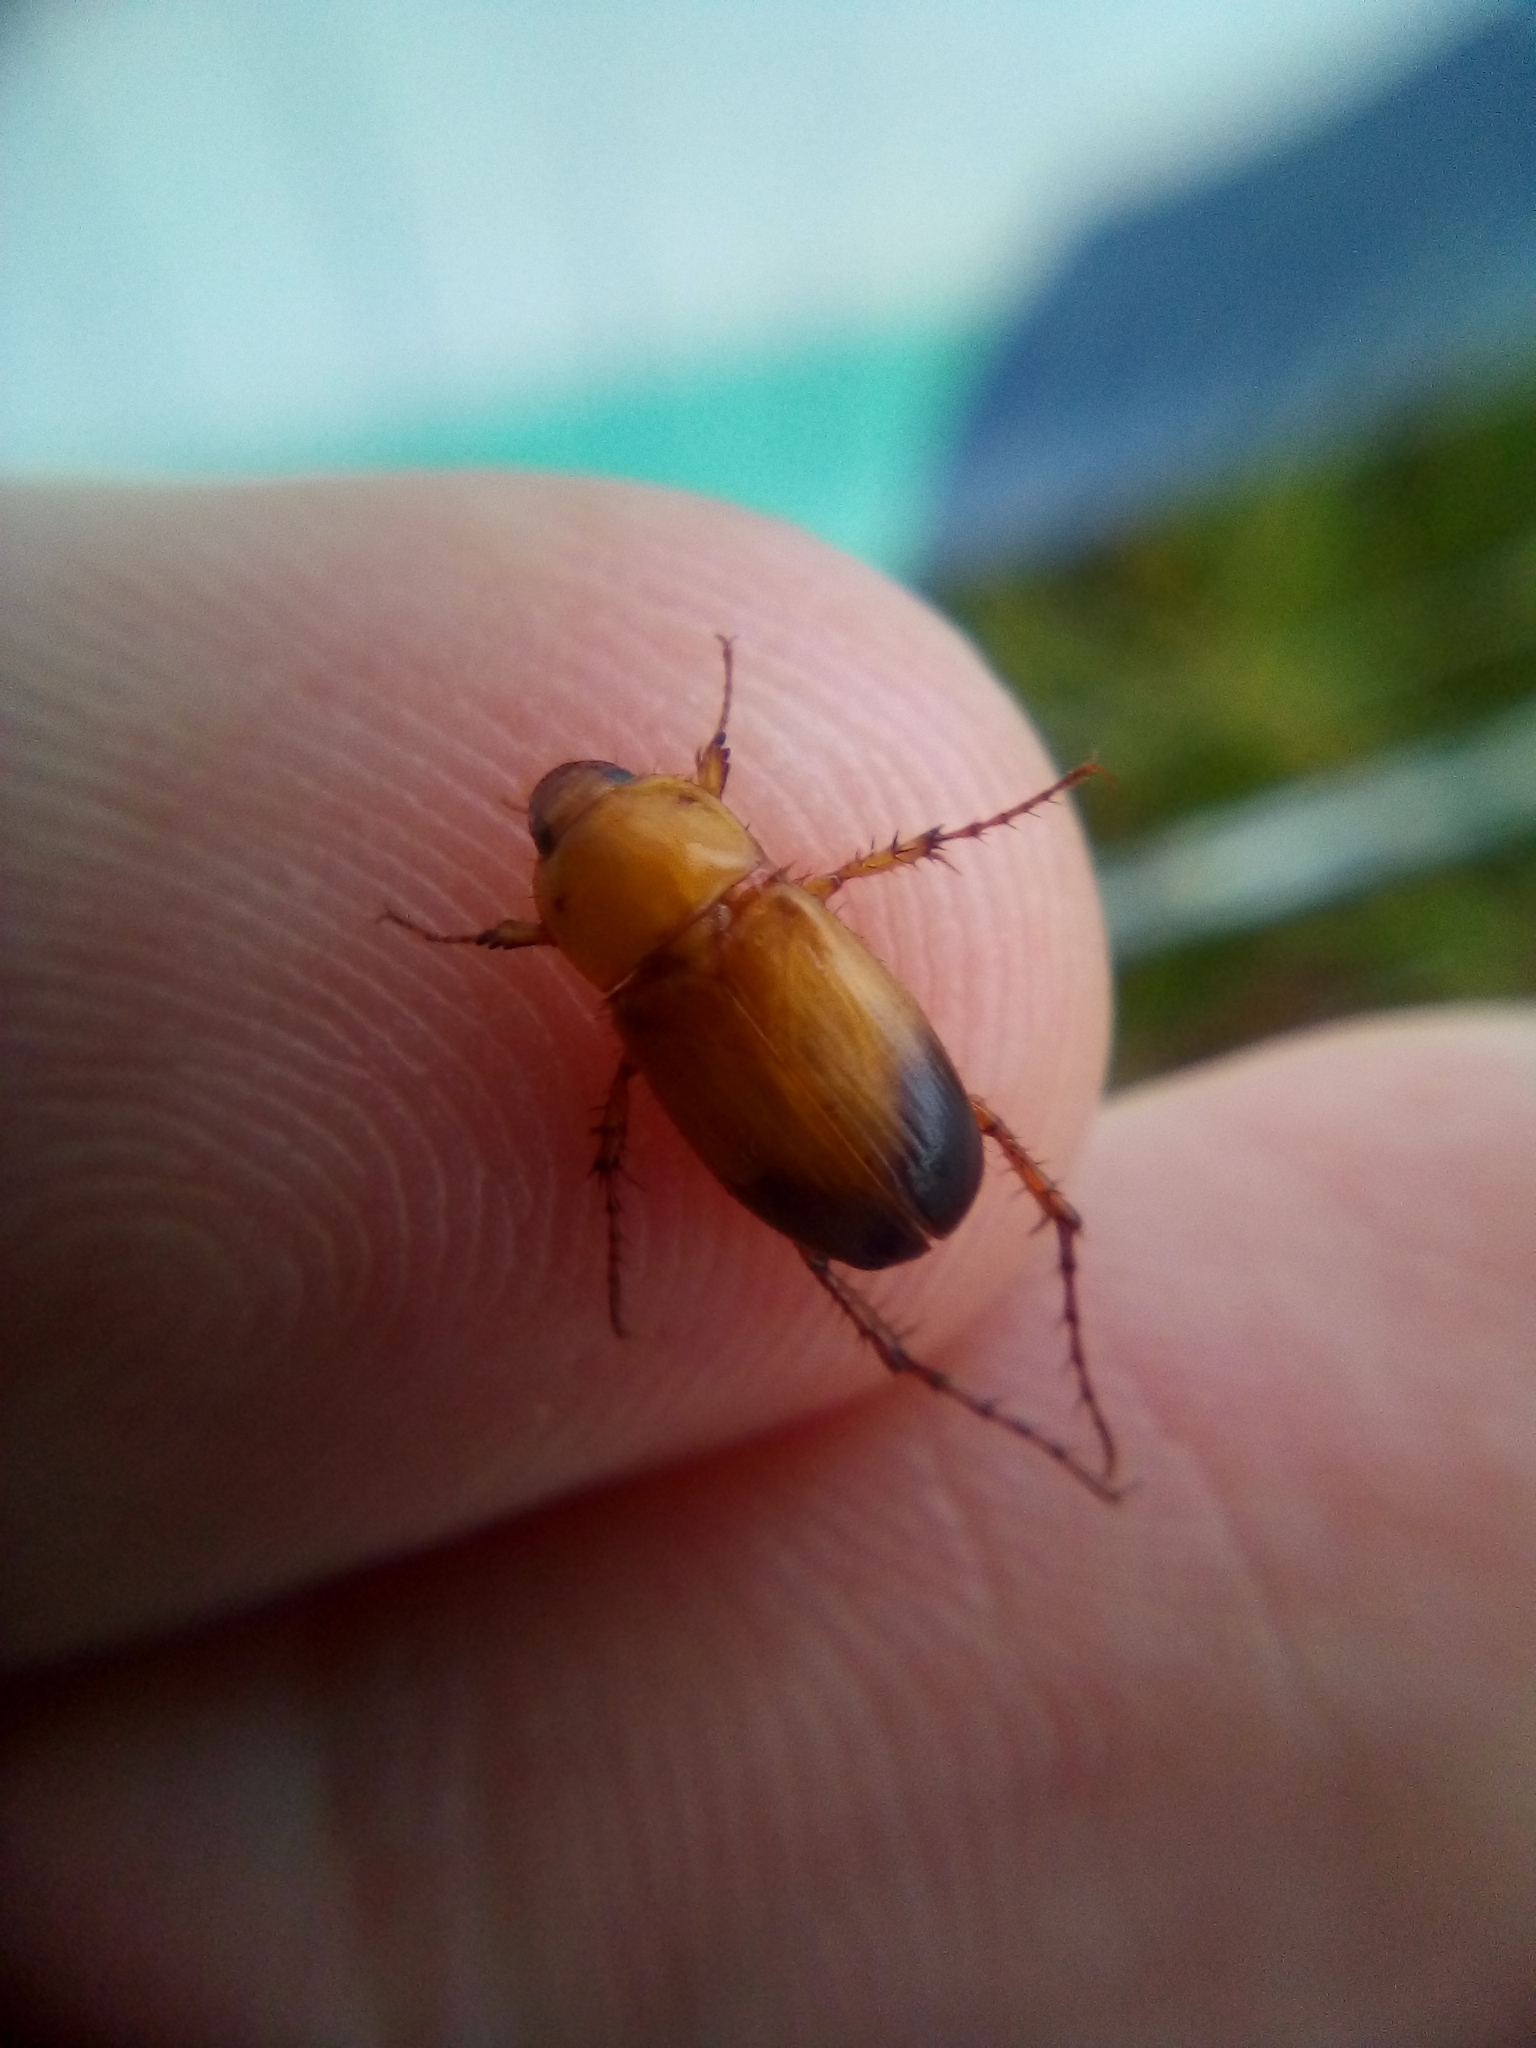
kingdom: Animalia
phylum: Arthropoda
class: Insecta
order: Coleoptera
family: Scarabaeidae
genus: Phyllotocus
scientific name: Phyllotocus macleayi
